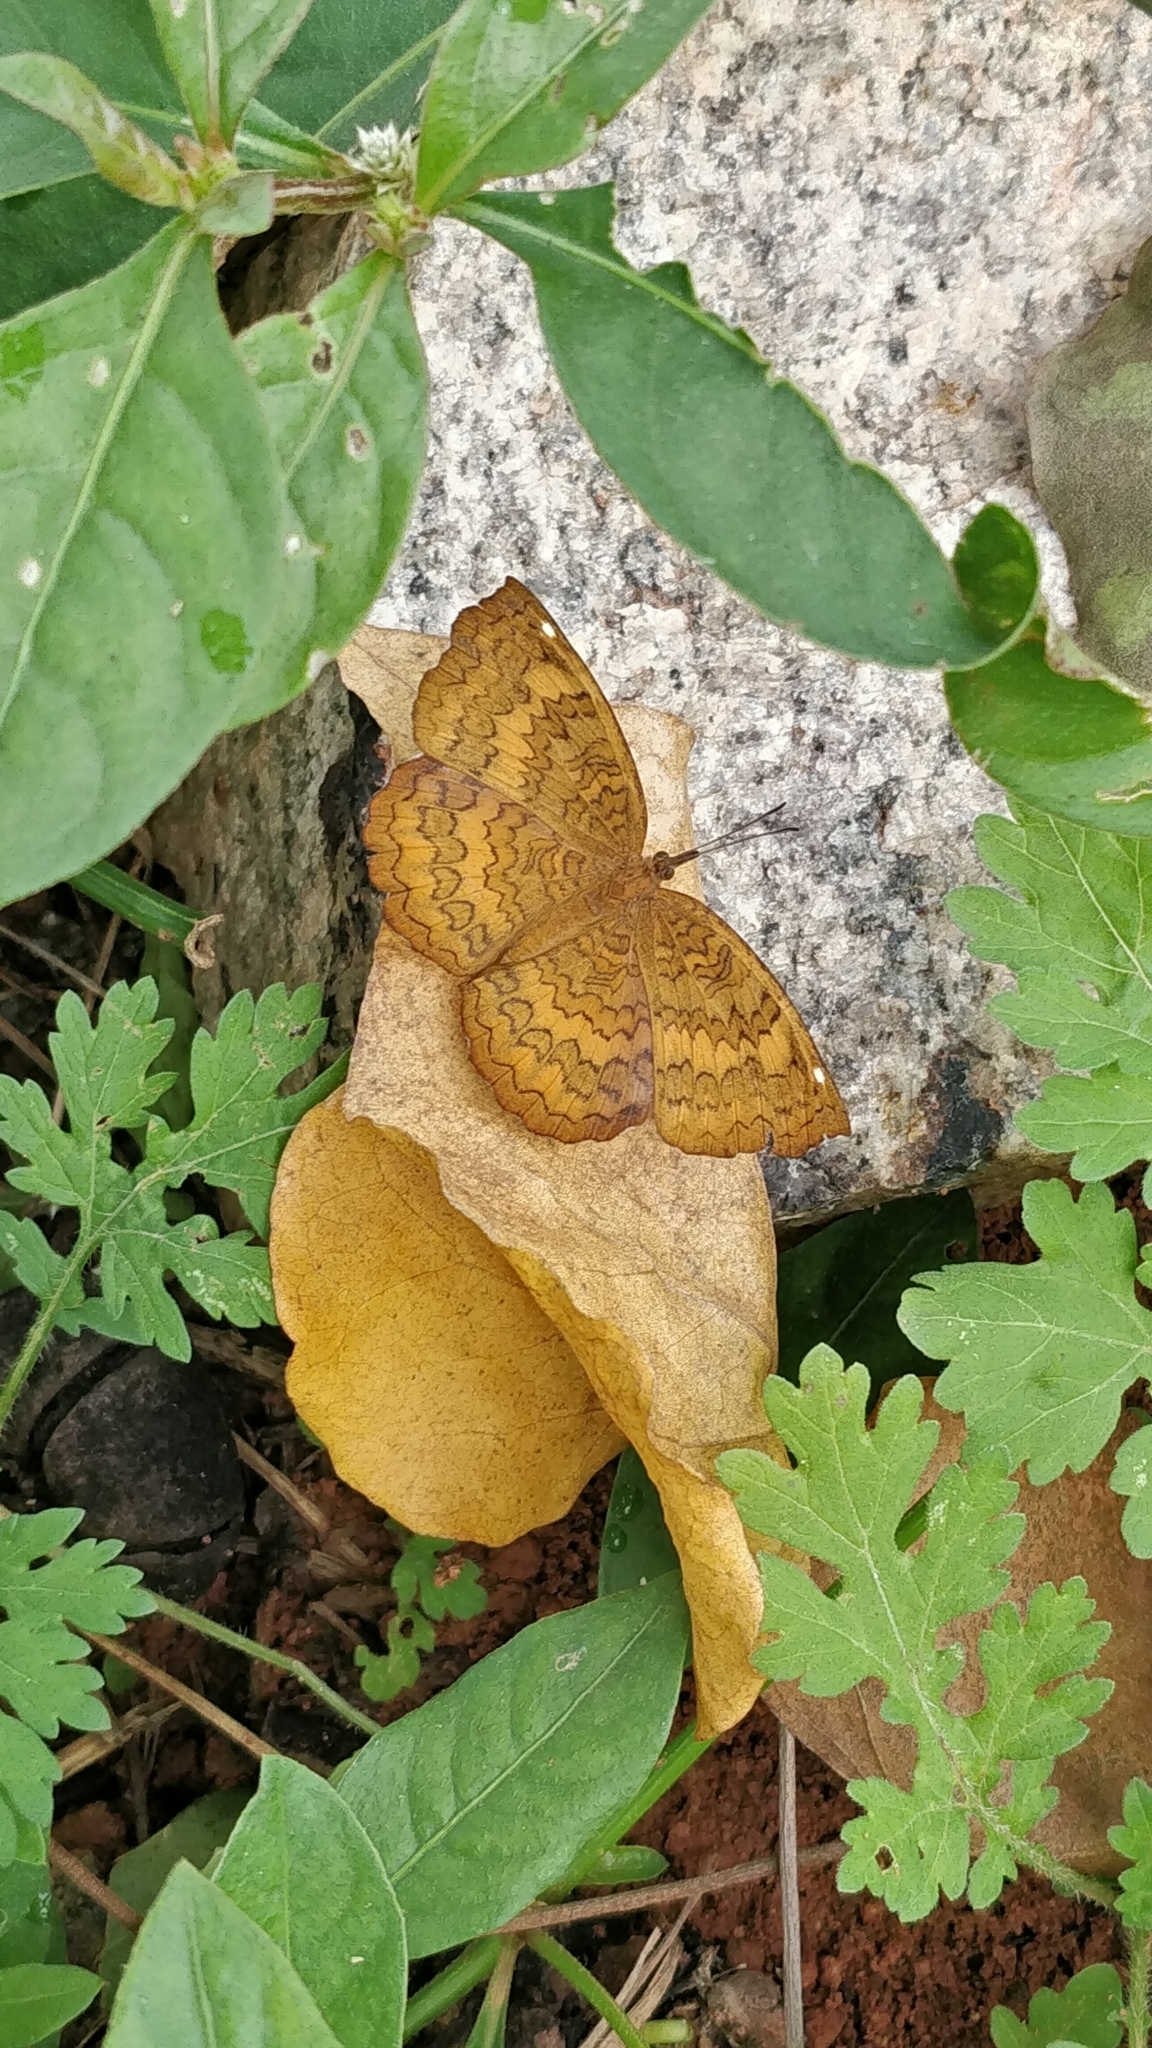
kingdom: Animalia
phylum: Arthropoda
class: Insecta
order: Lepidoptera
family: Nymphalidae
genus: Ariadne
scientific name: Ariadne merione
